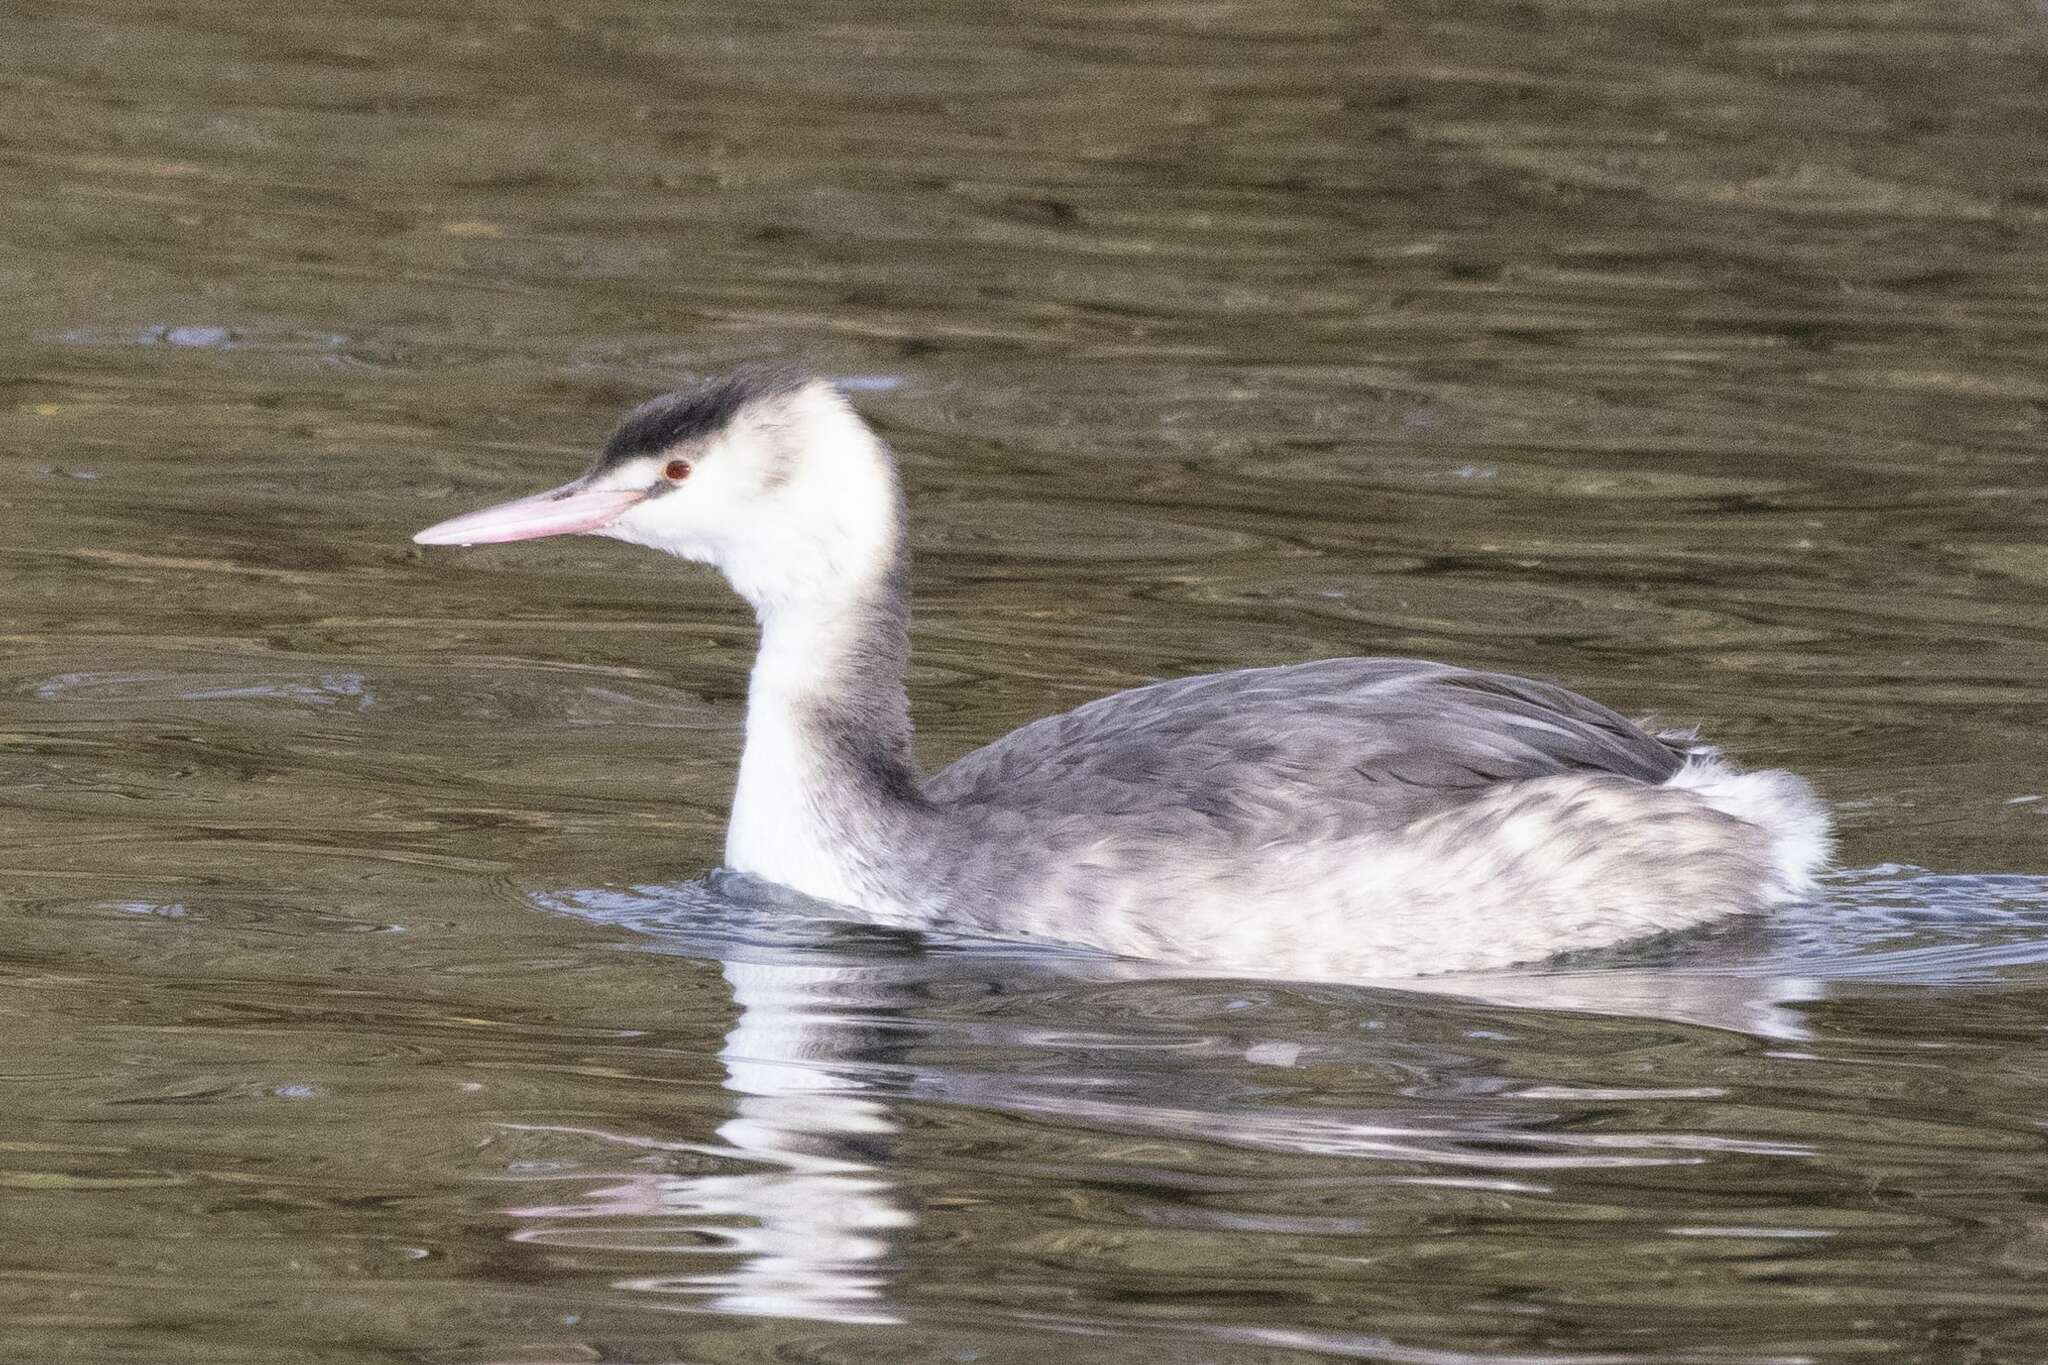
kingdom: Animalia
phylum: Chordata
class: Aves
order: Podicipediformes
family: Podicipedidae
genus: Podiceps
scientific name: Podiceps cristatus
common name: Great crested grebe
